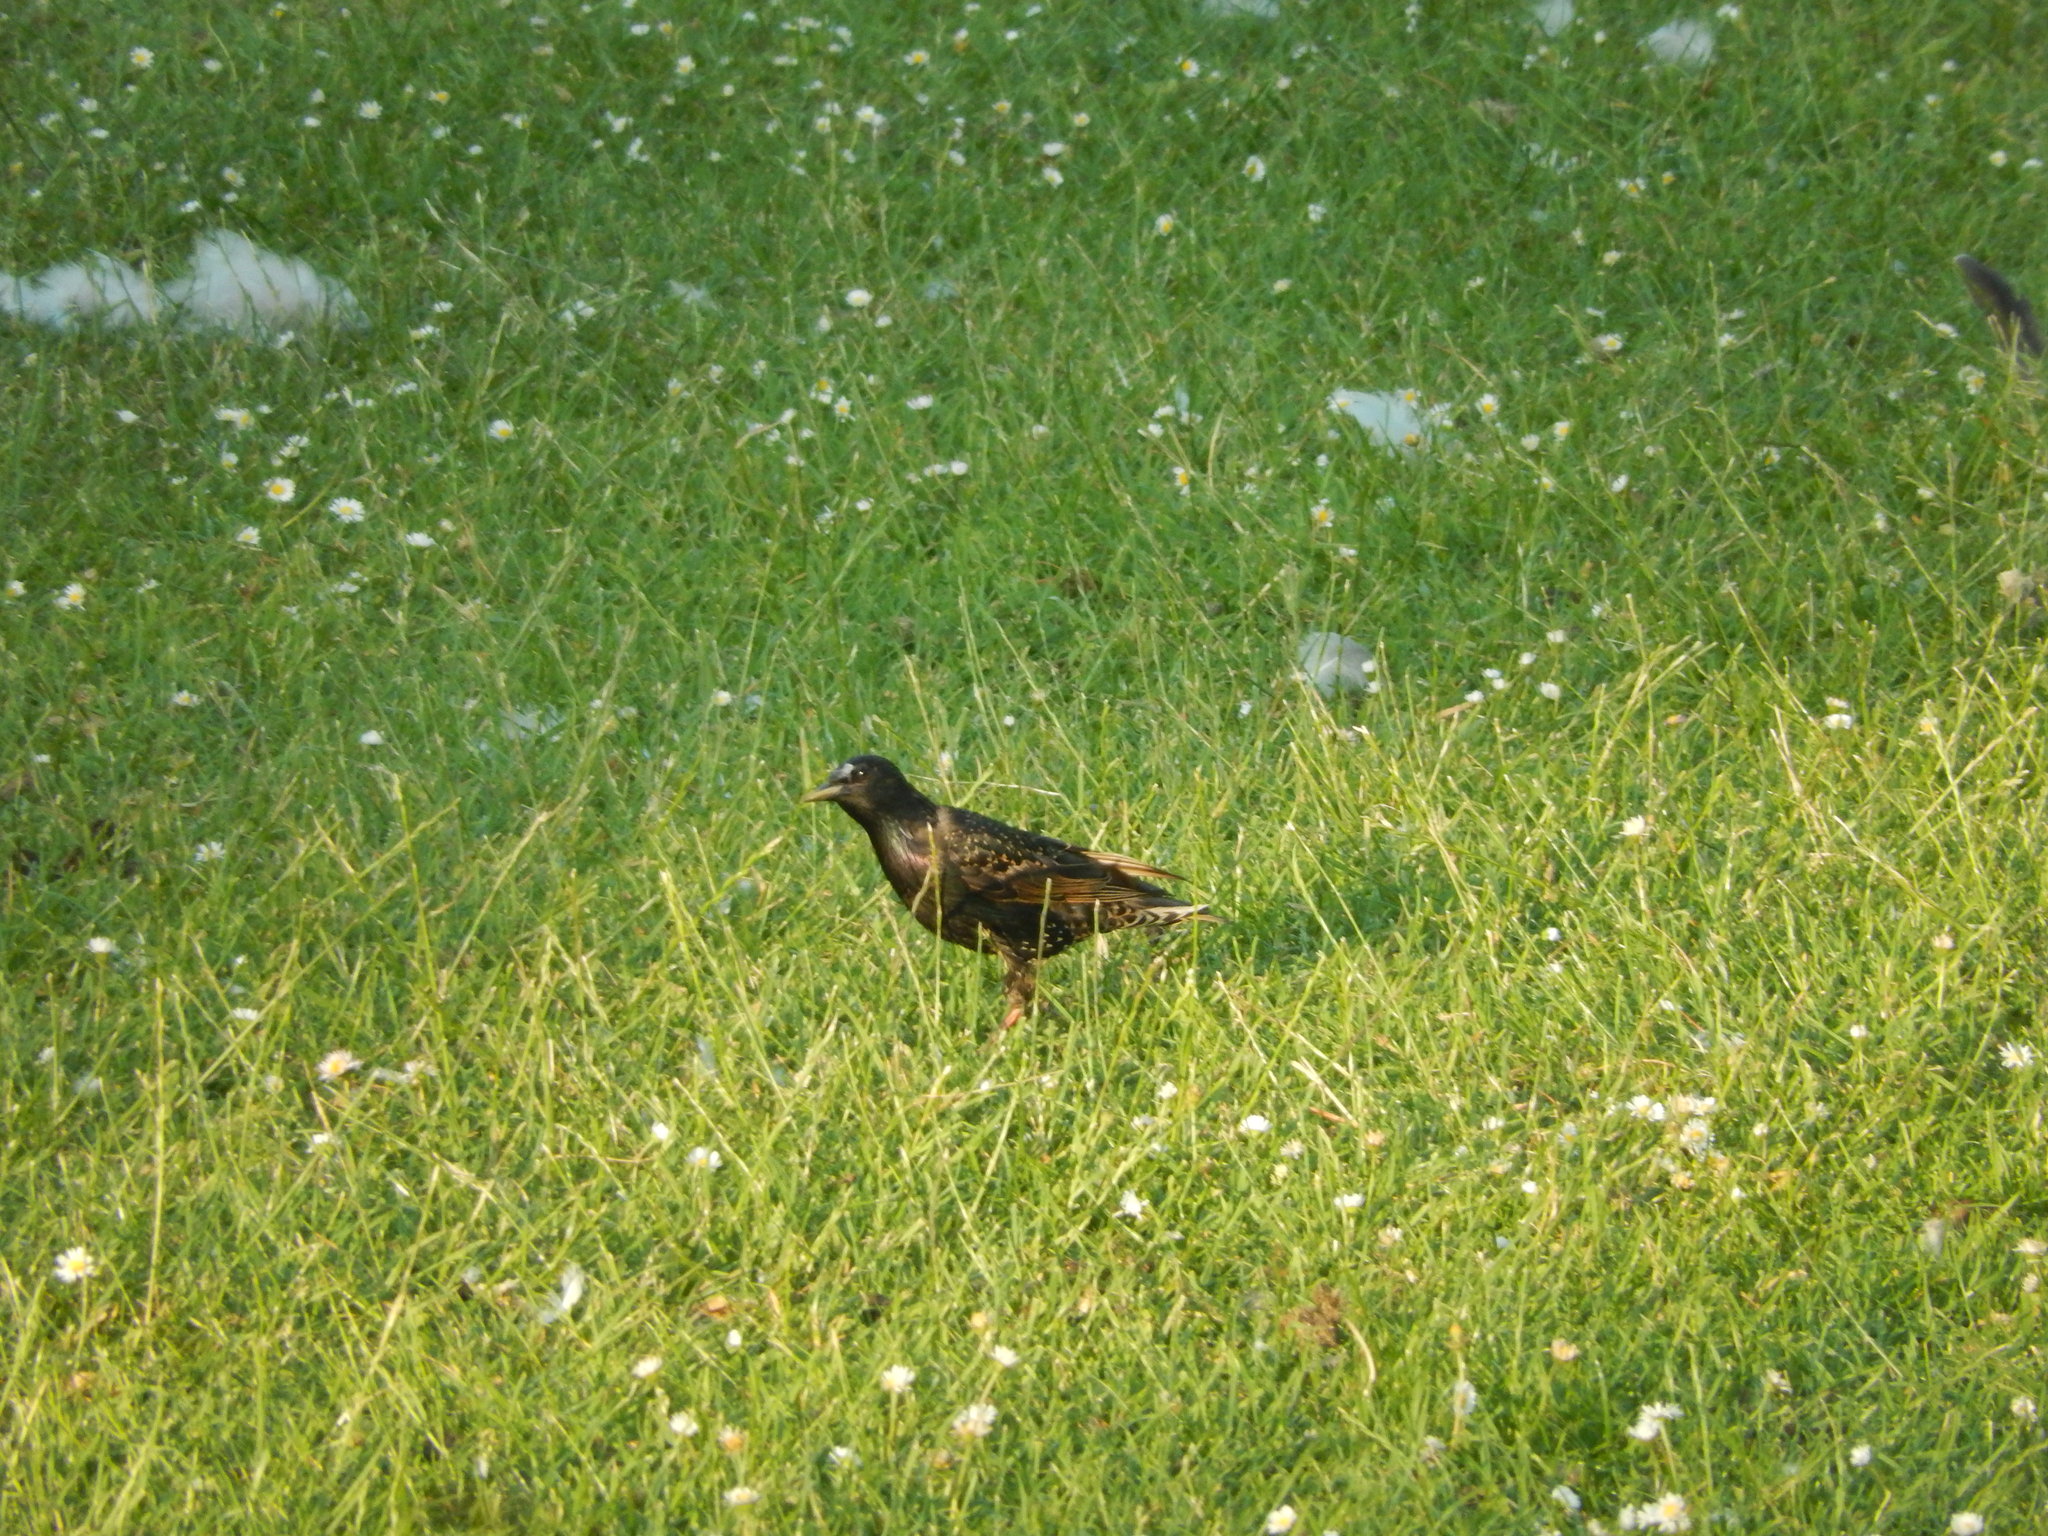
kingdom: Animalia
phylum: Chordata
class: Aves
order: Passeriformes
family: Sturnidae
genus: Sturnus
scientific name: Sturnus vulgaris
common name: Common starling
